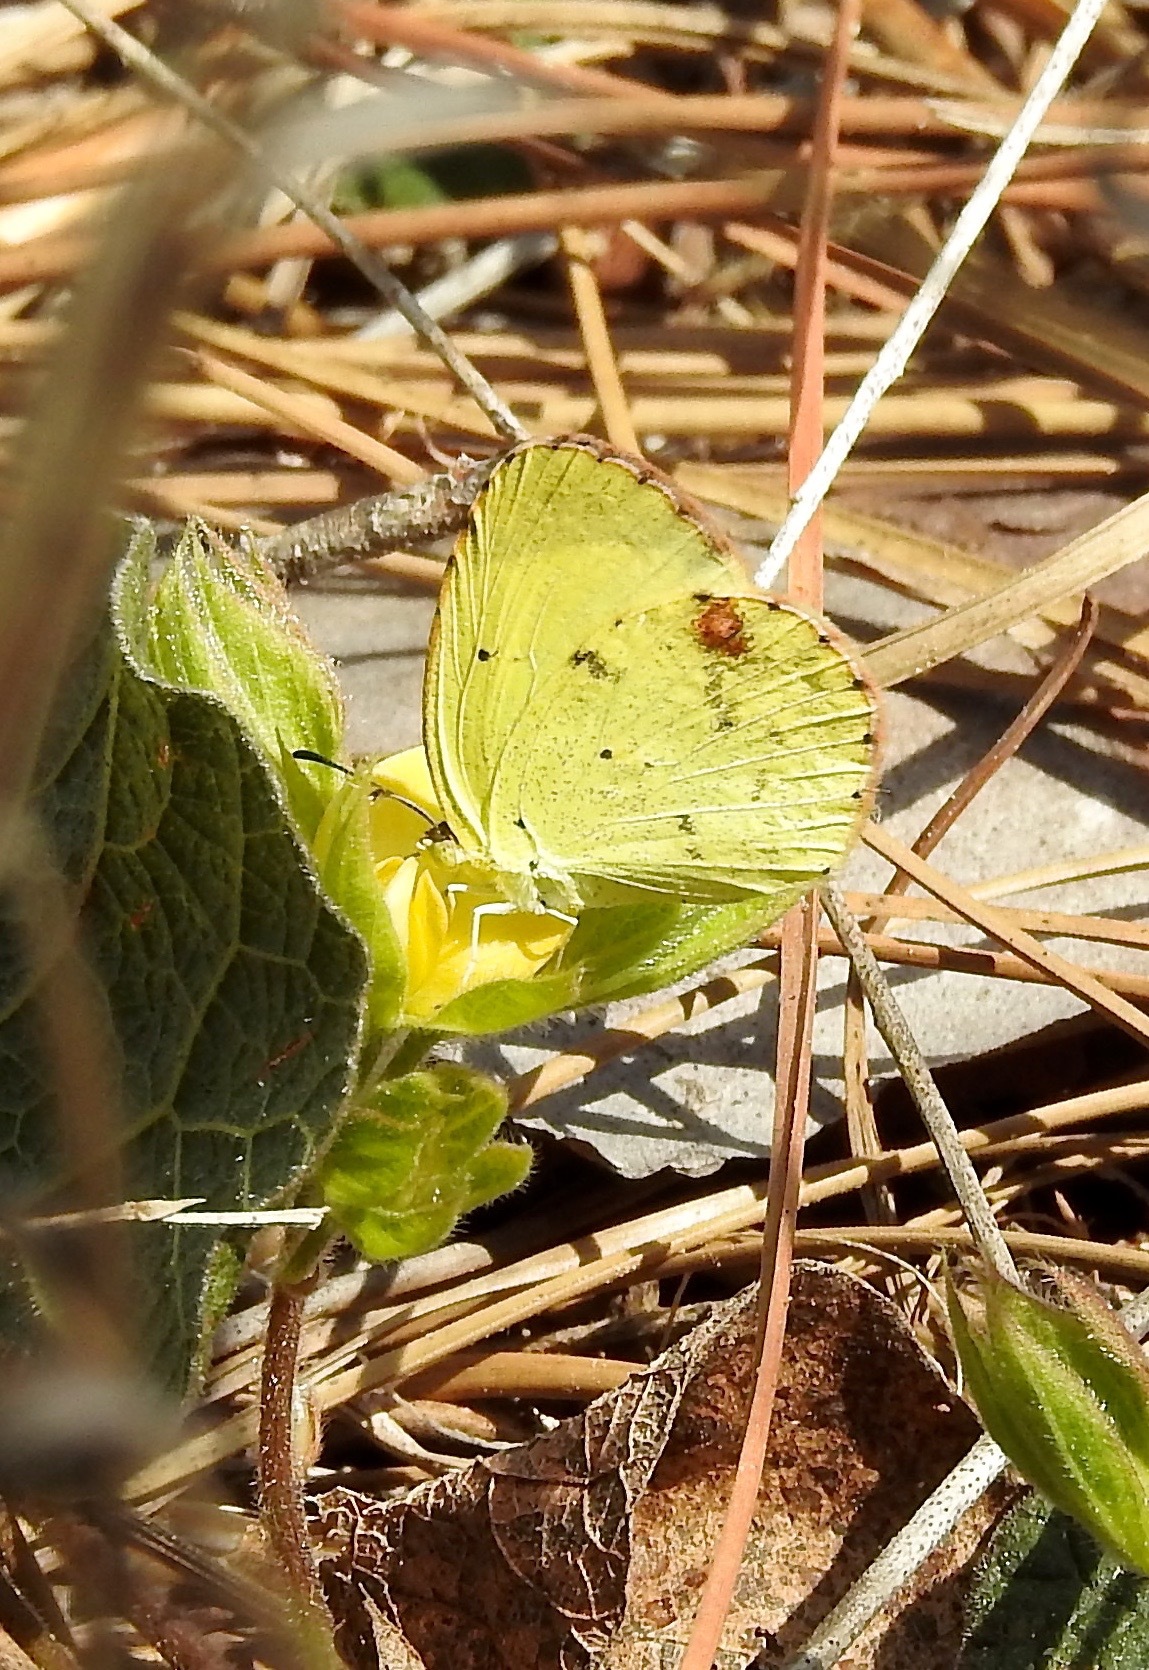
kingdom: Animalia
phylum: Arthropoda
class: Insecta
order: Lepidoptera
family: Pieridae
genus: Pyrisitia
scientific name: Pyrisitia lisa
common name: Little yellow
